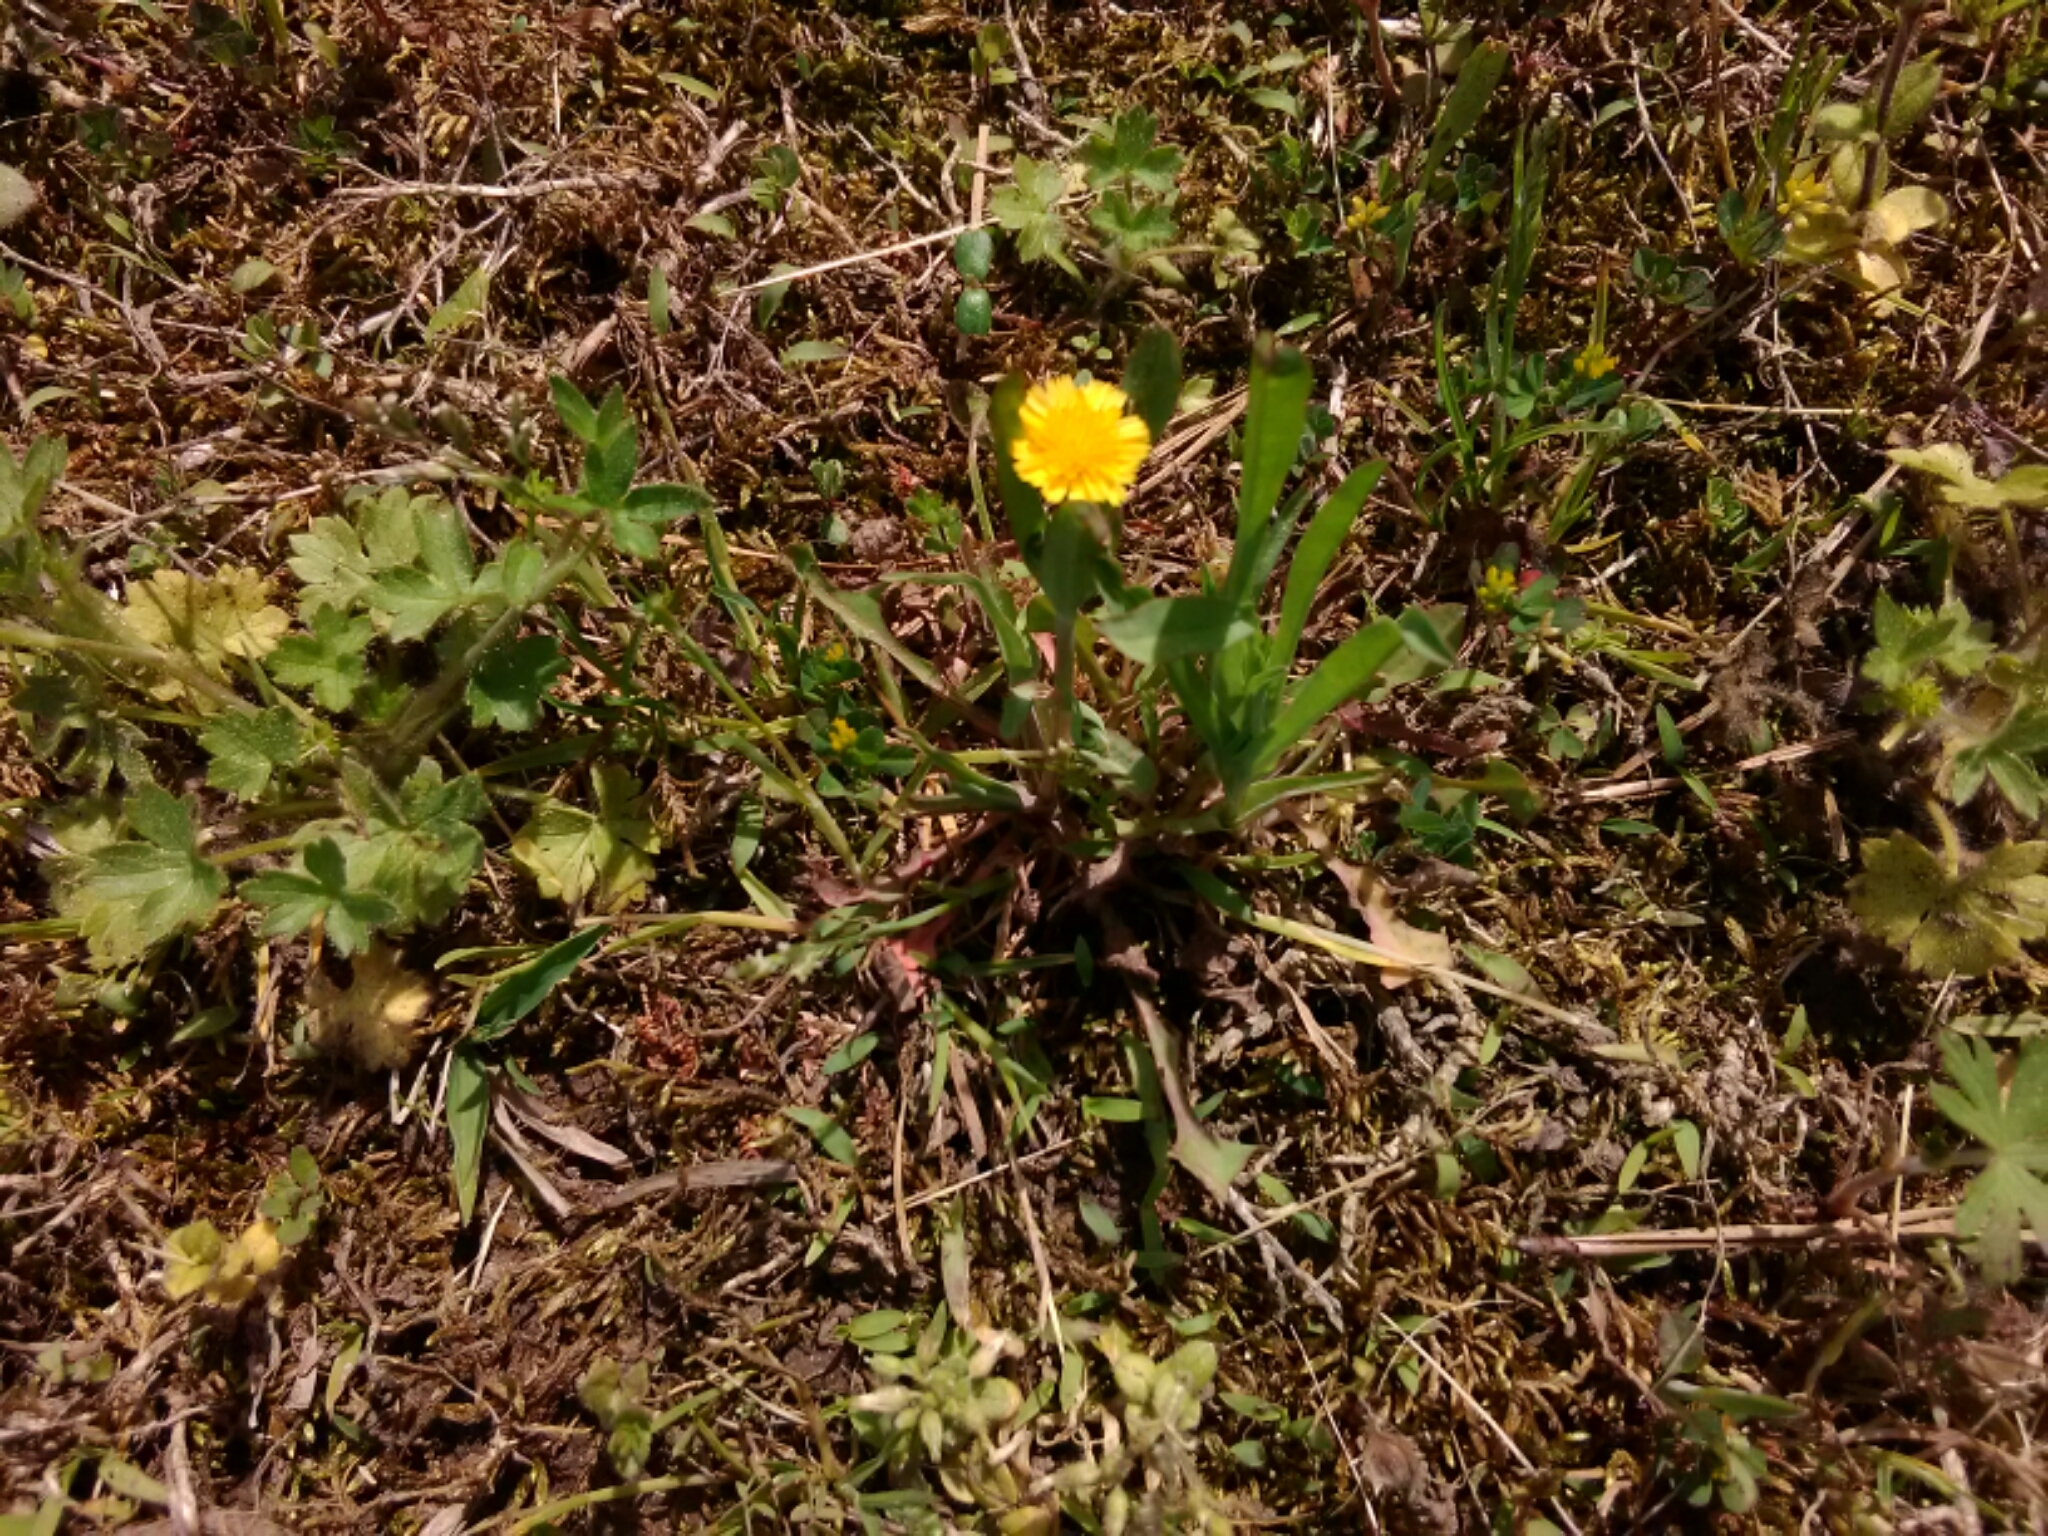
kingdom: Plantae
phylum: Tracheophyta
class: Magnoliopsida
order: Asterales
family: Asteraceae
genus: Krigia
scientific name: Krigia cespitosa
